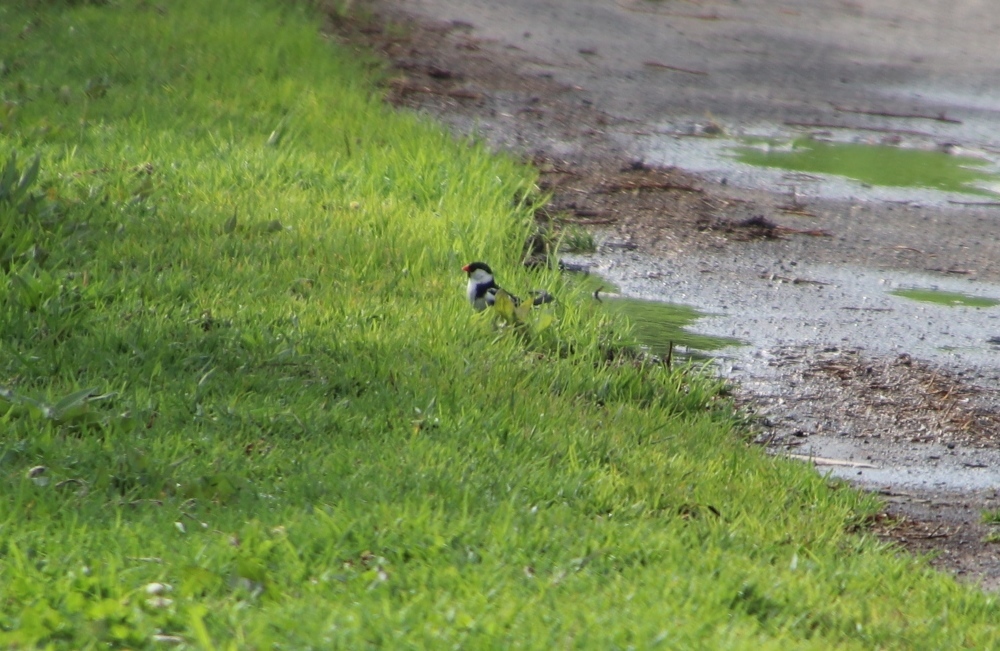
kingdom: Animalia
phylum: Chordata
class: Aves
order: Passeriformes
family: Viduidae
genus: Vidua
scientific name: Vidua macroura
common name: Pin-tailed whydah
